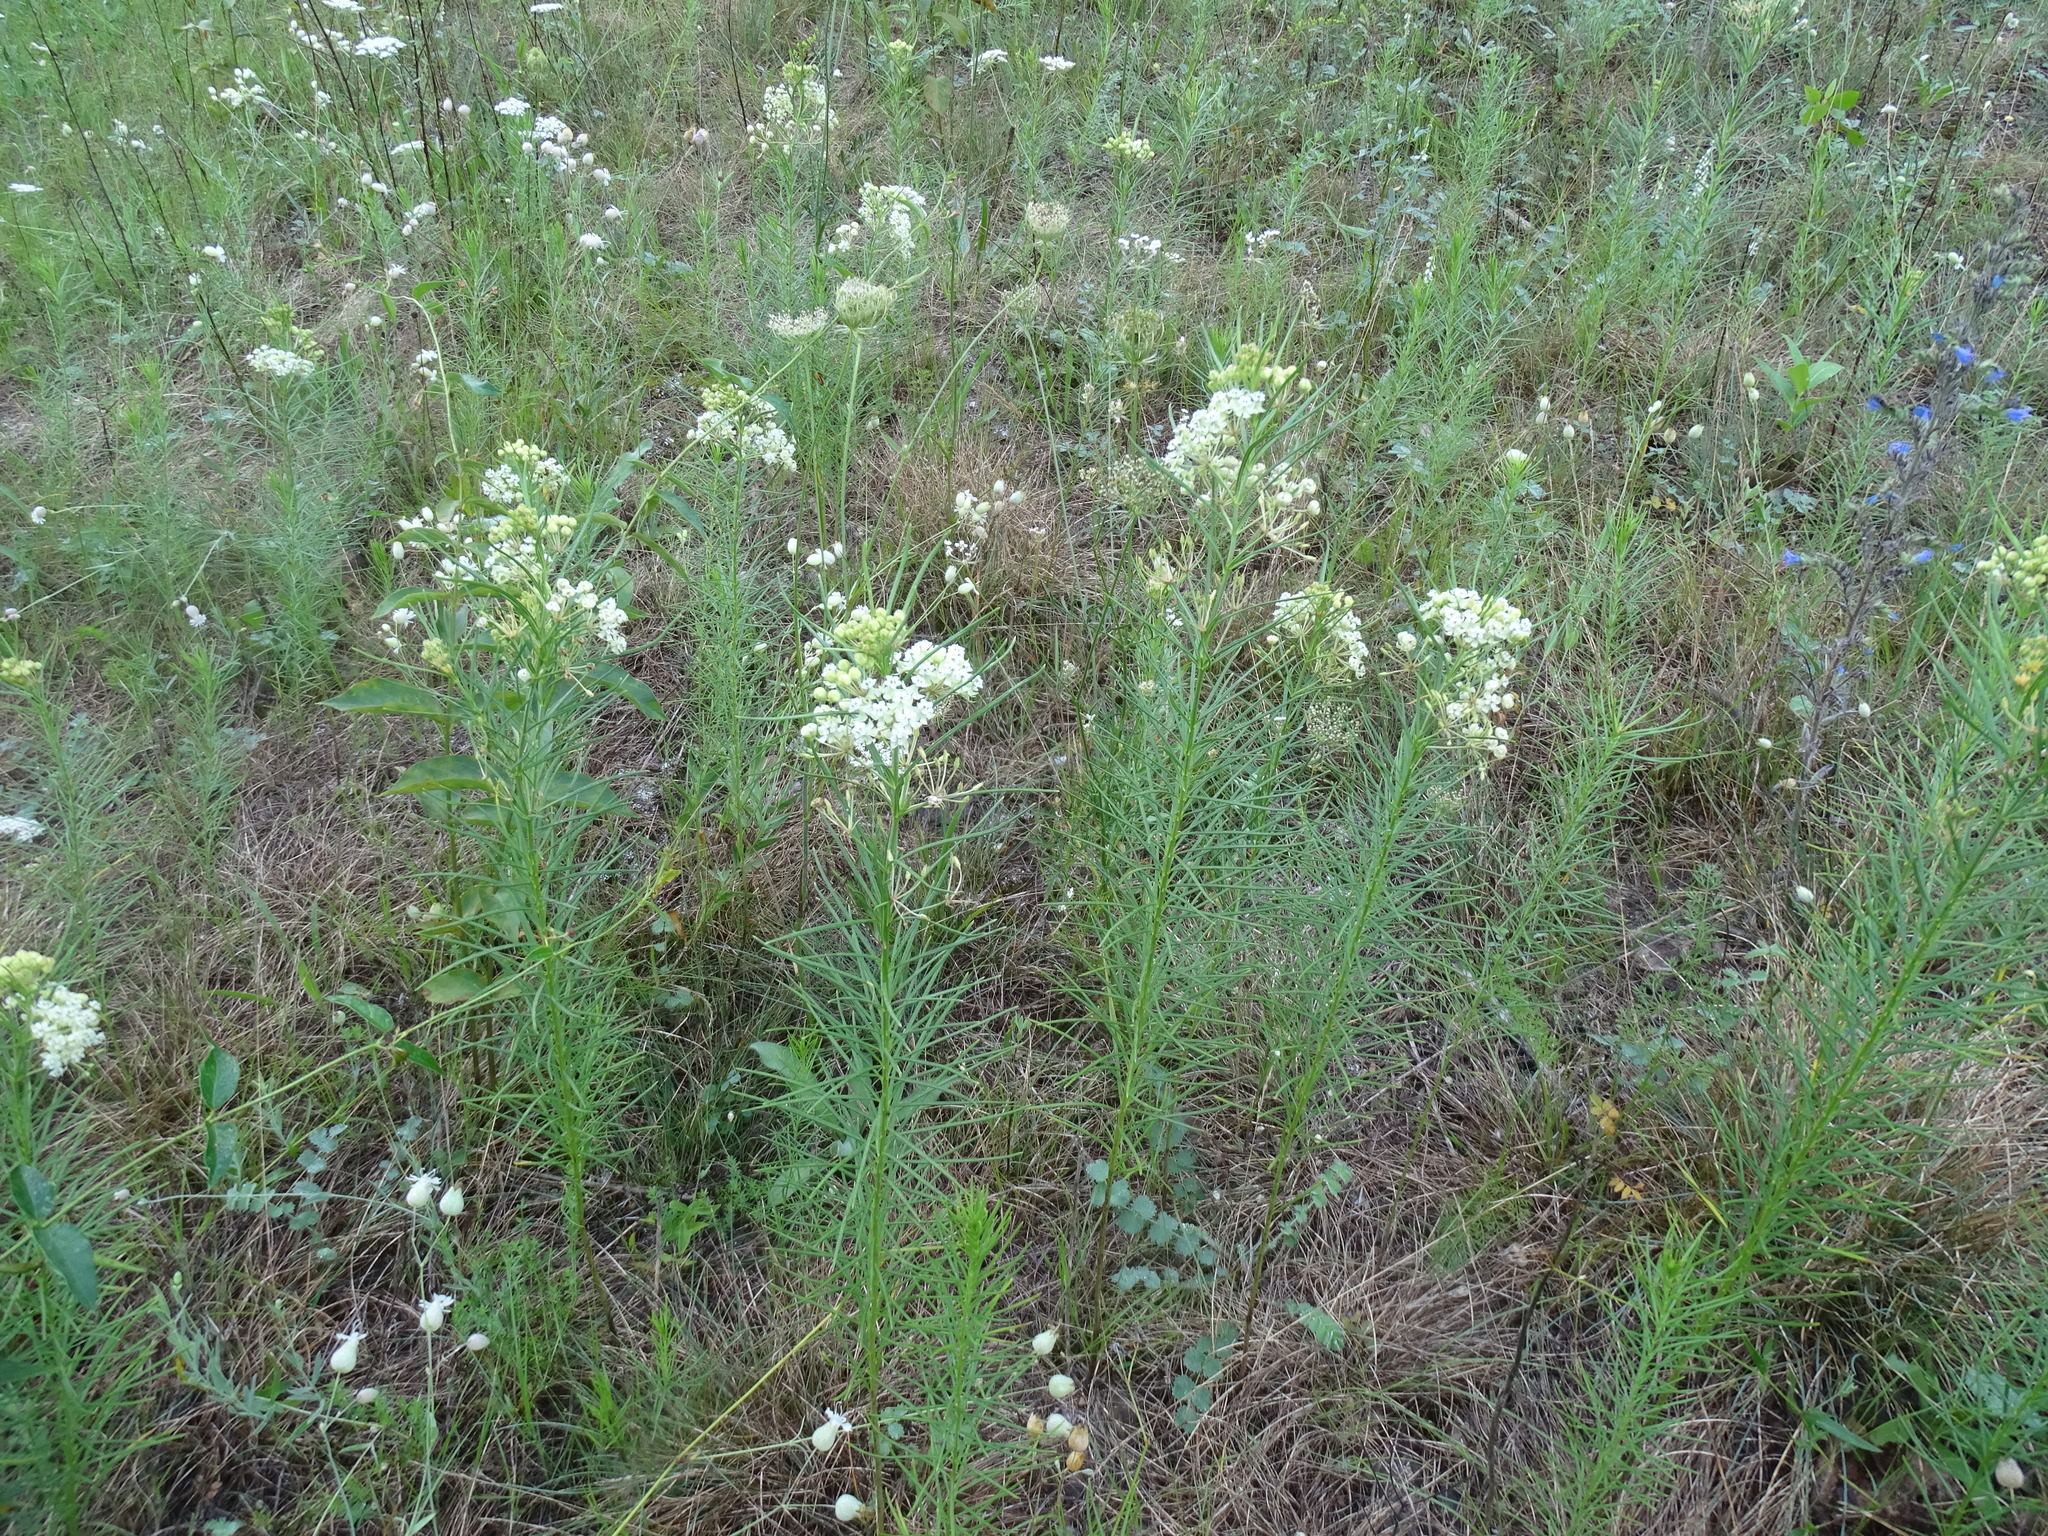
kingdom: Plantae
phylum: Tracheophyta
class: Magnoliopsida
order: Gentianales
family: Apocynaceae
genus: Asclepias
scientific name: Asclepias verticillata
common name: Eastern whorled milkweed
